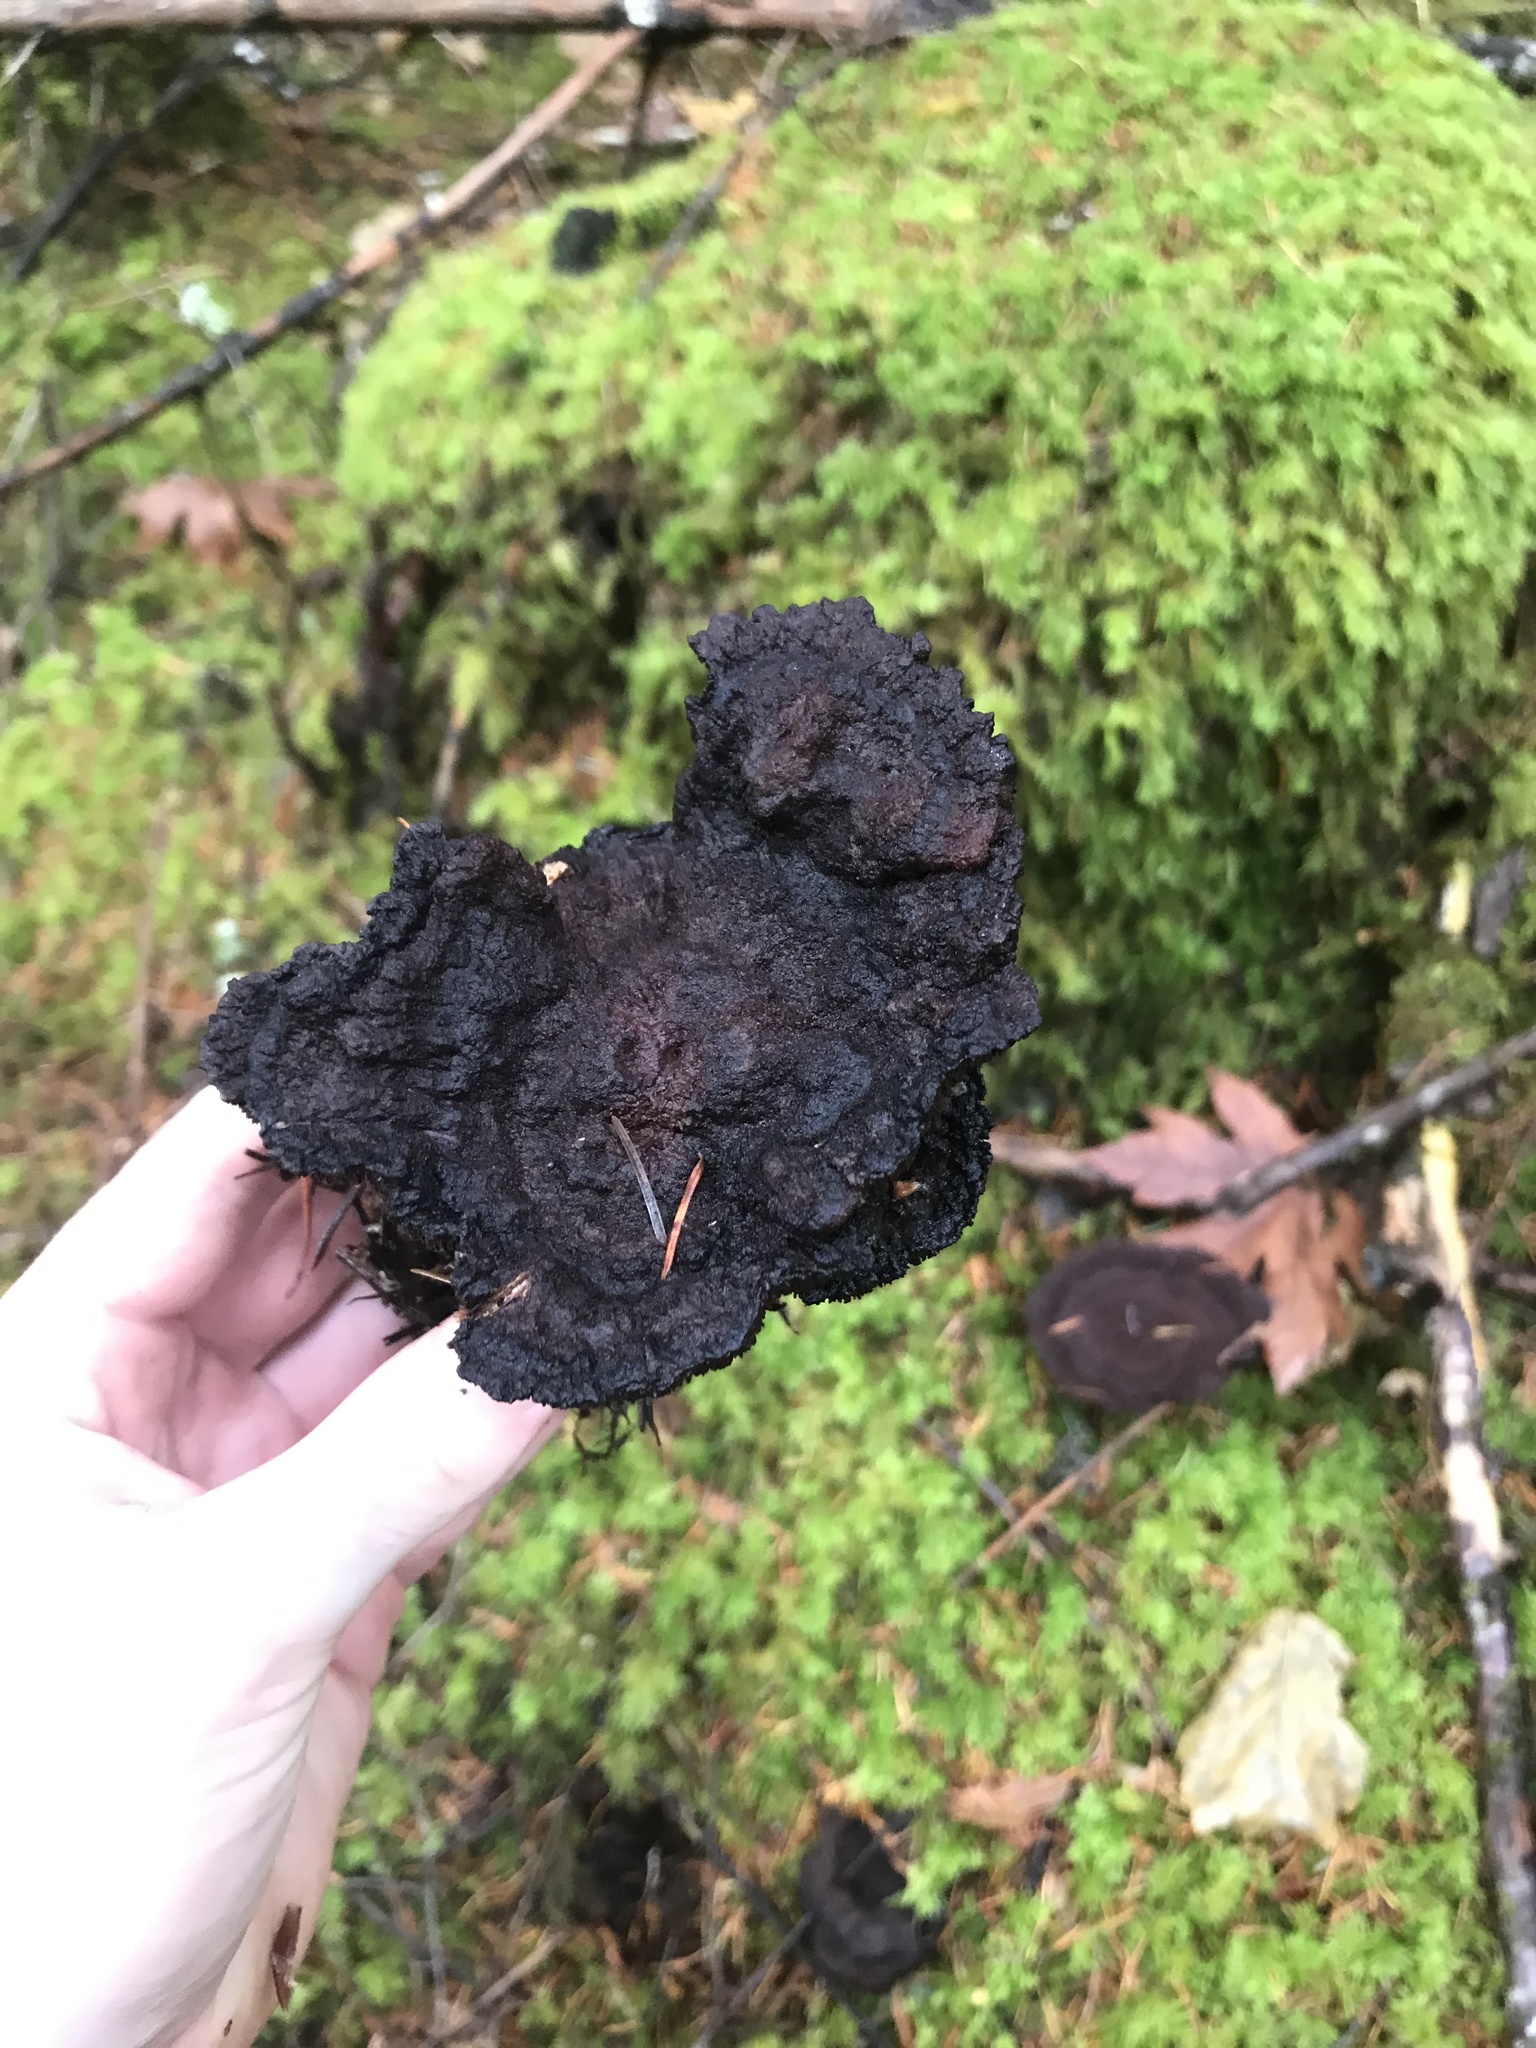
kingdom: Fungi
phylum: Basidiomycota
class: Agaricomycetes
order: Polyporales
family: Laetiporaceae
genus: Phaeolus
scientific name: Phaeolus schweinitzii
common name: Dyer's mazegill
